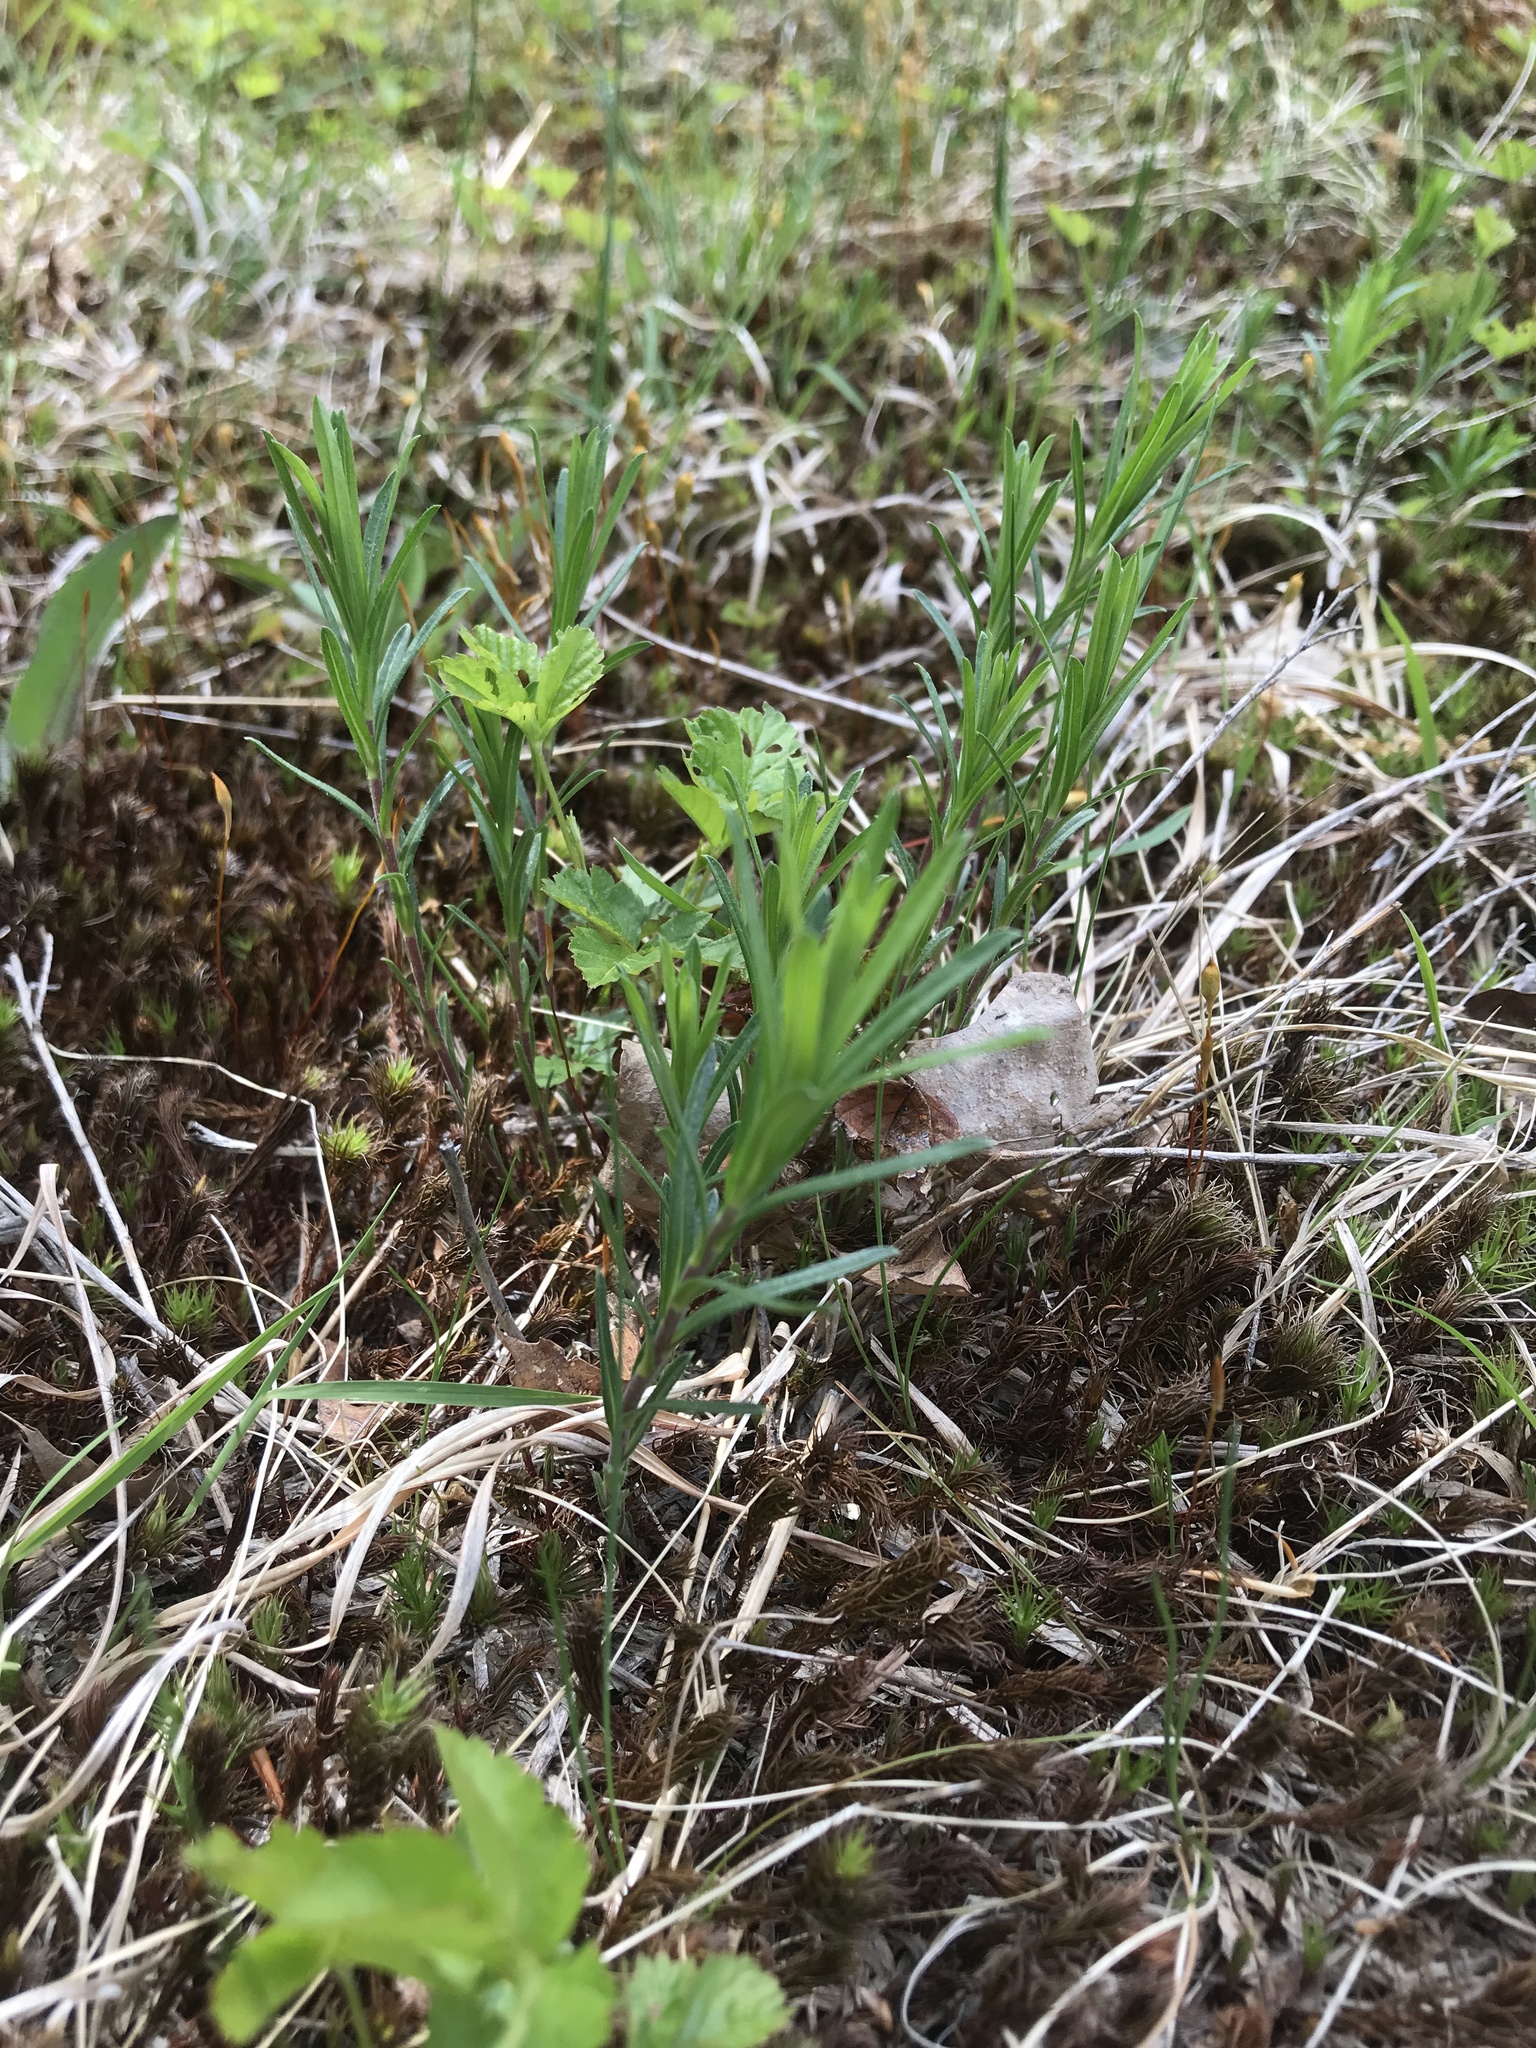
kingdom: Plantae
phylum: Tracheophyta
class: Magnoliopsida
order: Asterales
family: Asteraceae
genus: Ionactis
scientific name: Ionactis linariifolia
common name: Flax-leaf aster
